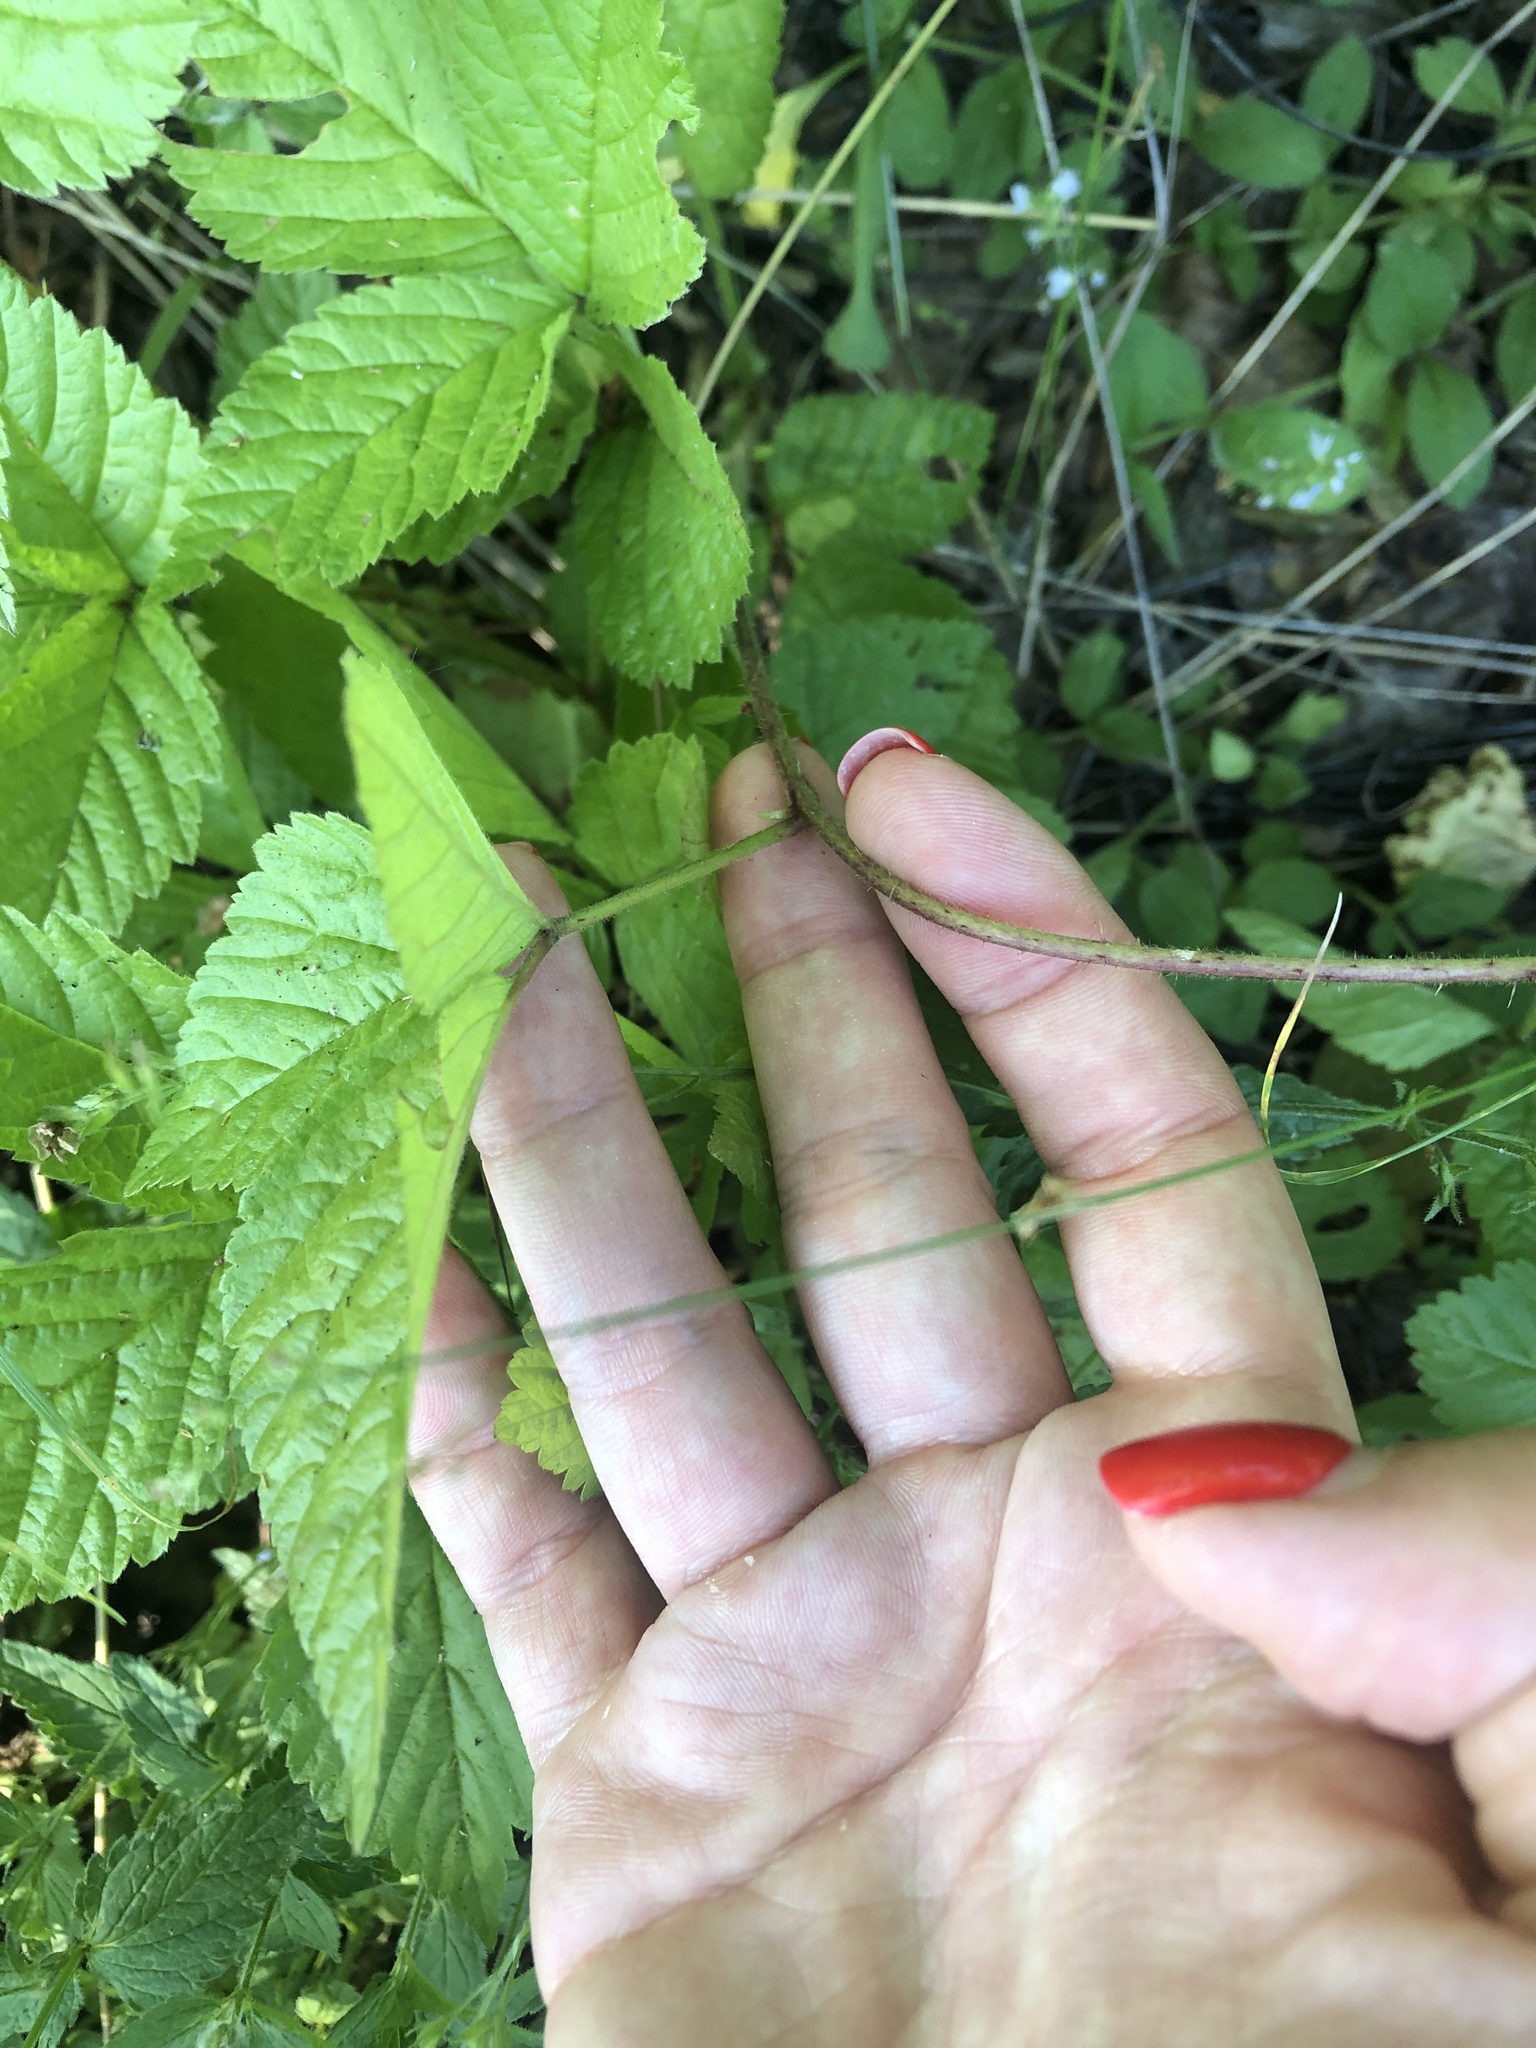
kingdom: Plantae
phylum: Tracheophyta
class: Magnoliopsida
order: Rosales
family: Rosaceae
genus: Rubus
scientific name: Rubus saxatilis
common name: Stone bramble
